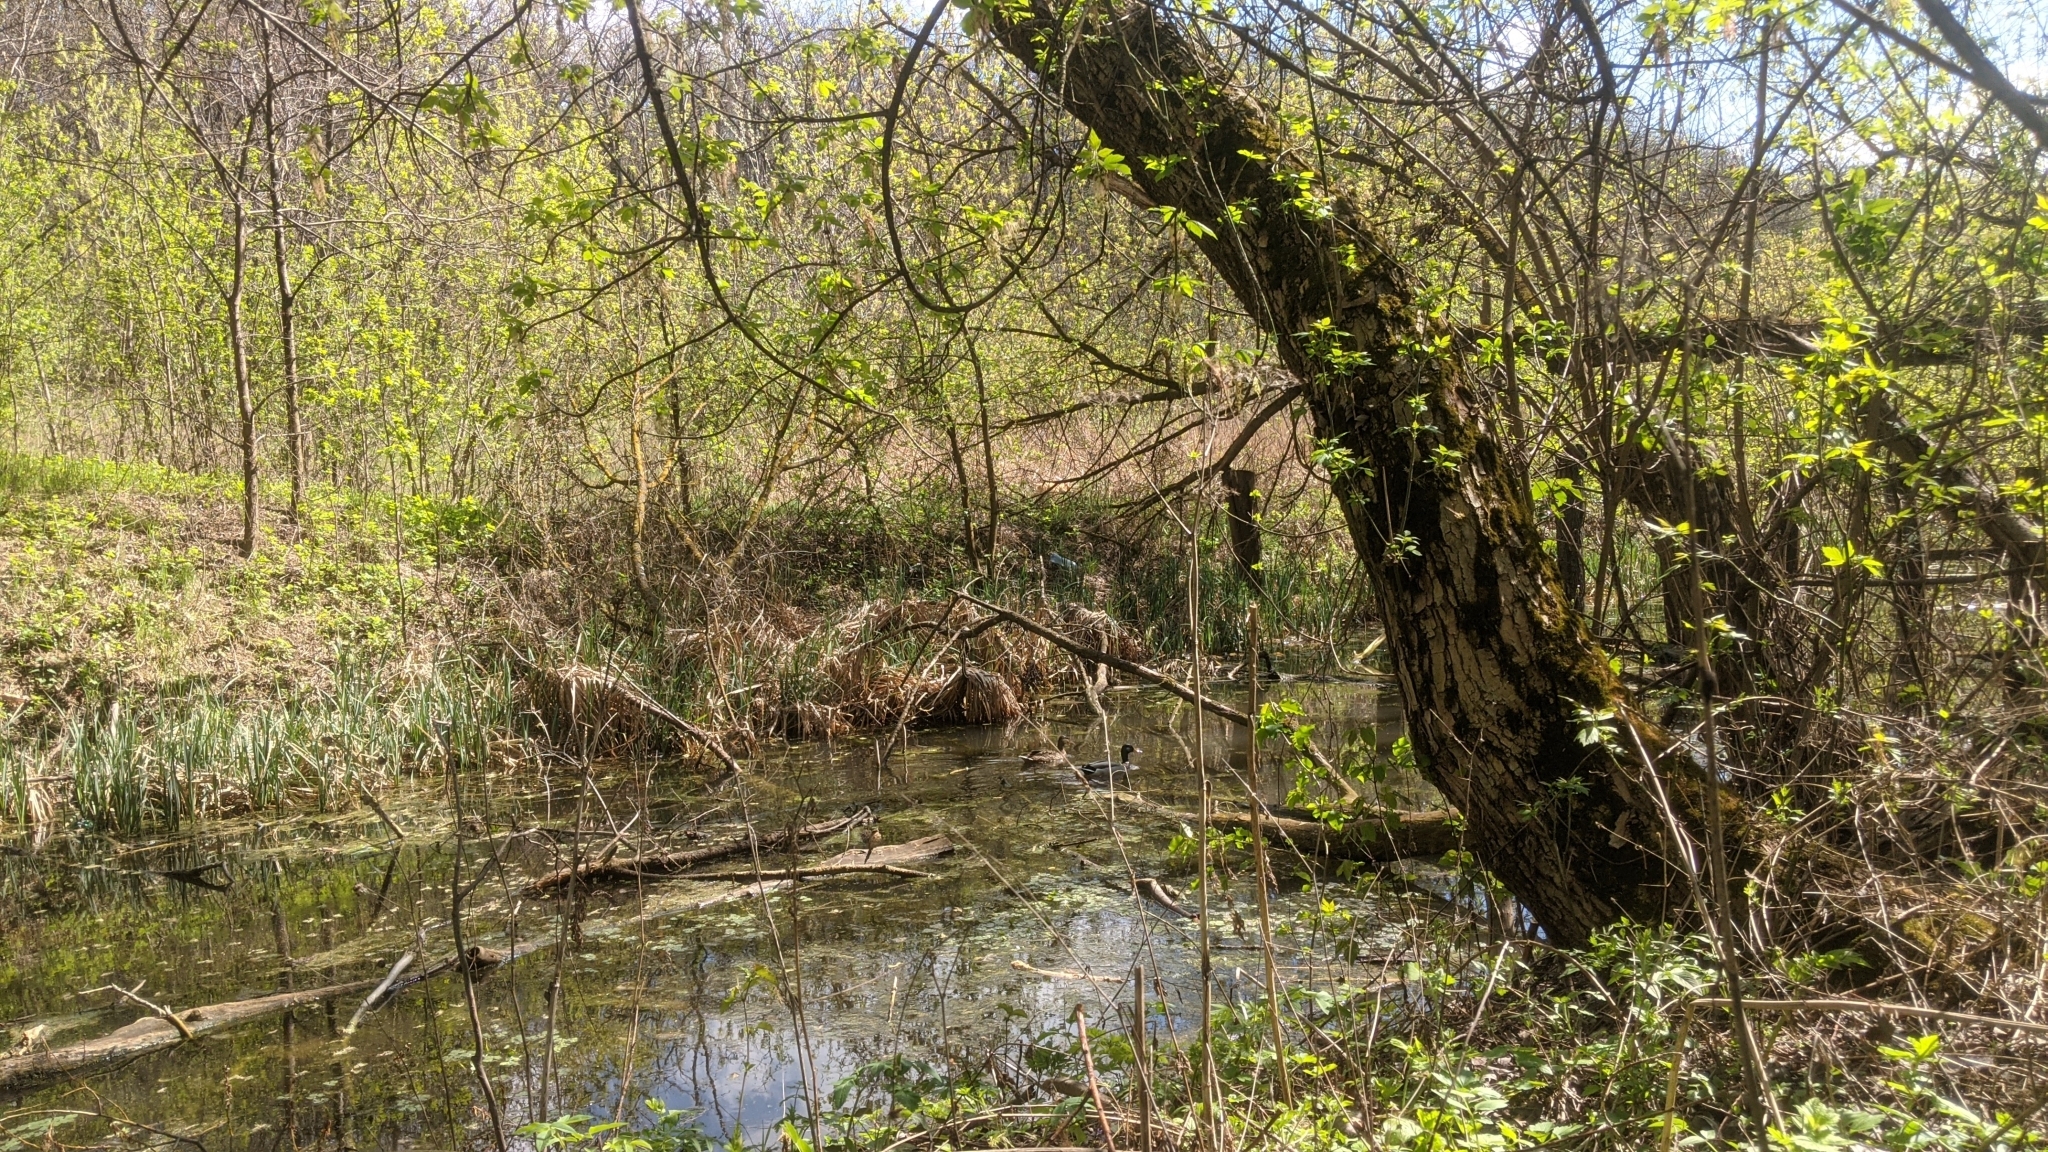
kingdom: Animalia
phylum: Chordata
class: Aves
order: Anseriformes
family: Anatidae
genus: Anas
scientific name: Anas platyrhynchos
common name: Mallard
